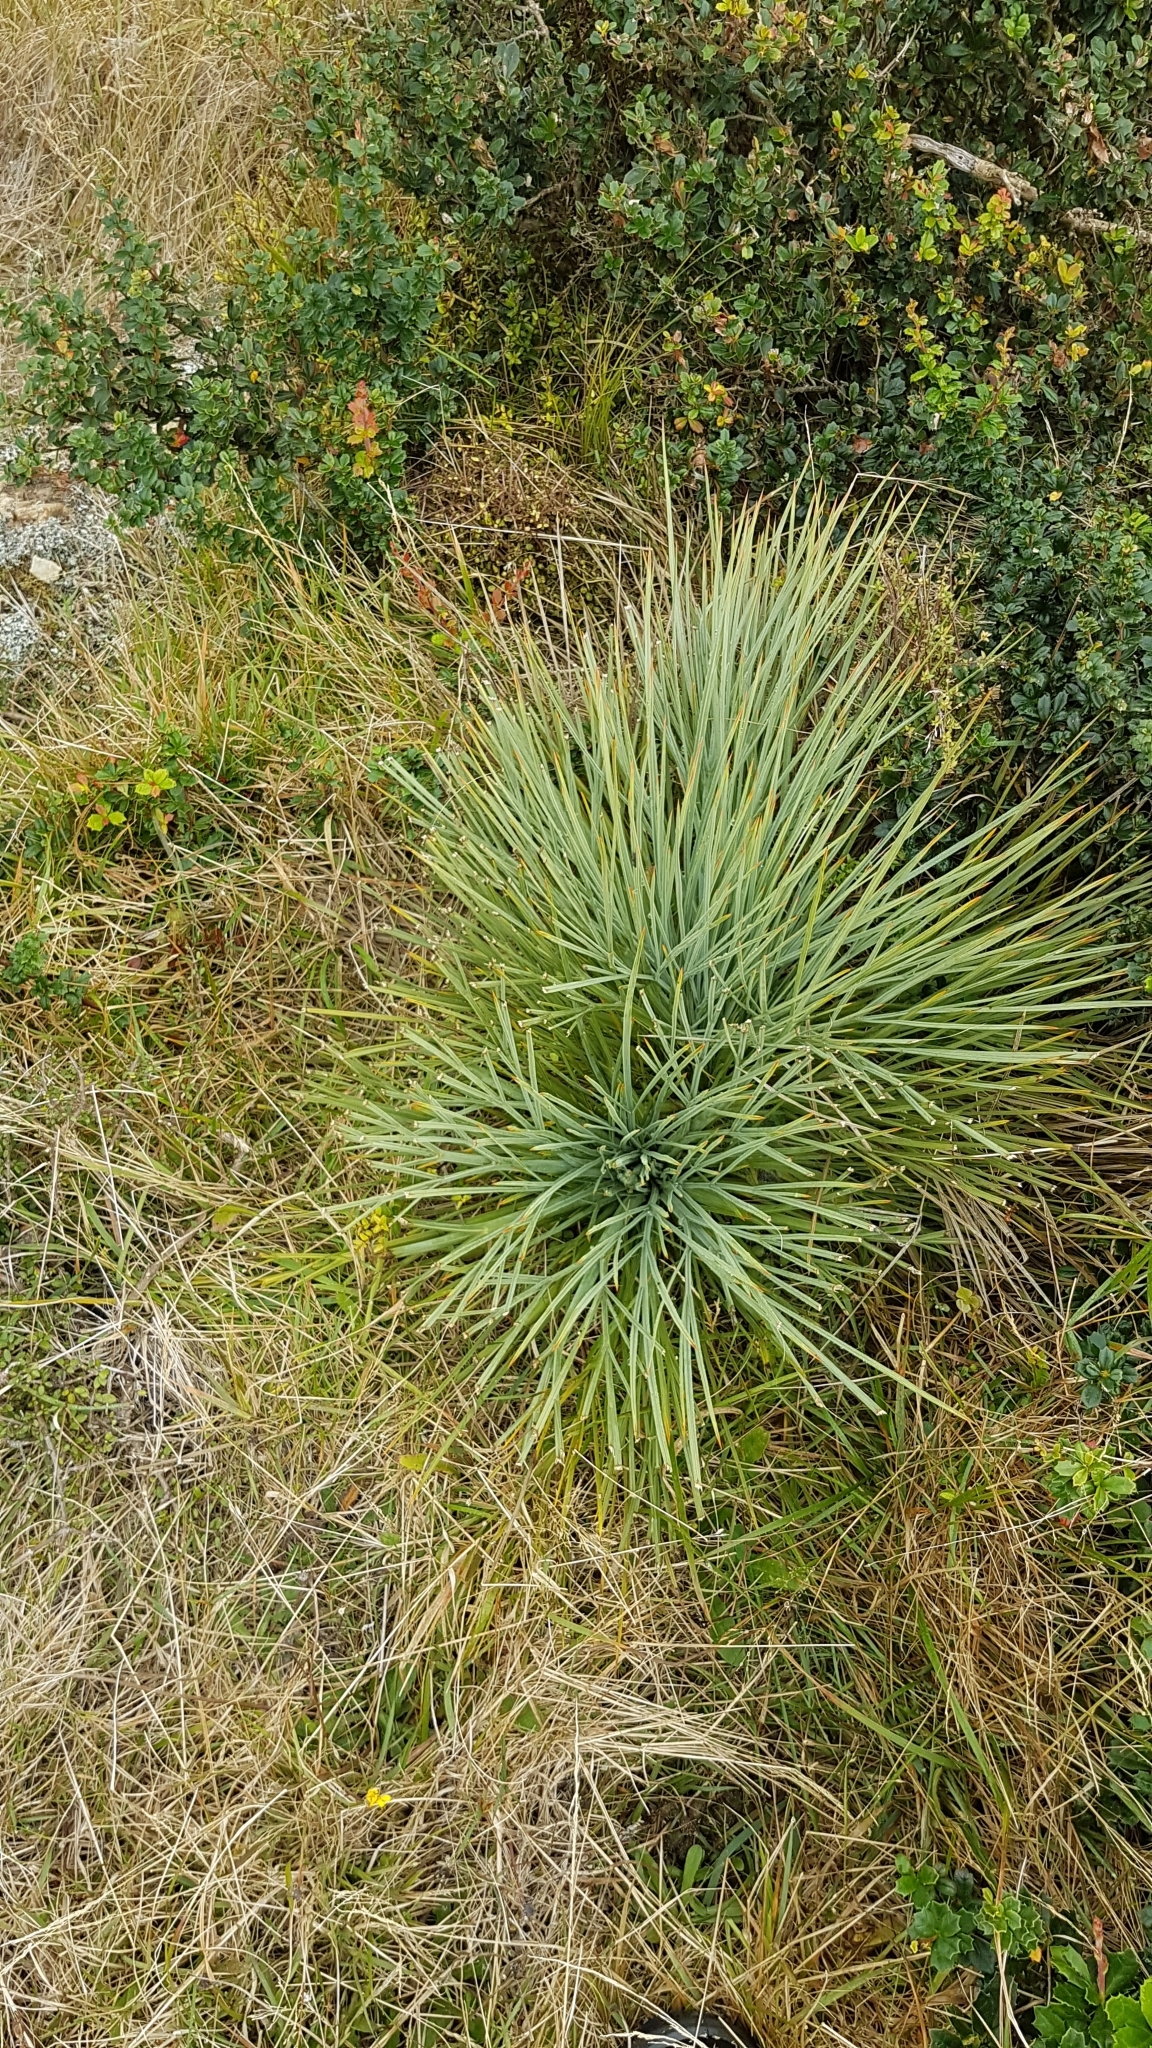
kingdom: Plantae
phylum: Tracheophyta
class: Magnoliopsida
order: Apiales
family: Apiaceae
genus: Aciphylla
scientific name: Aciphylla squarrosa
